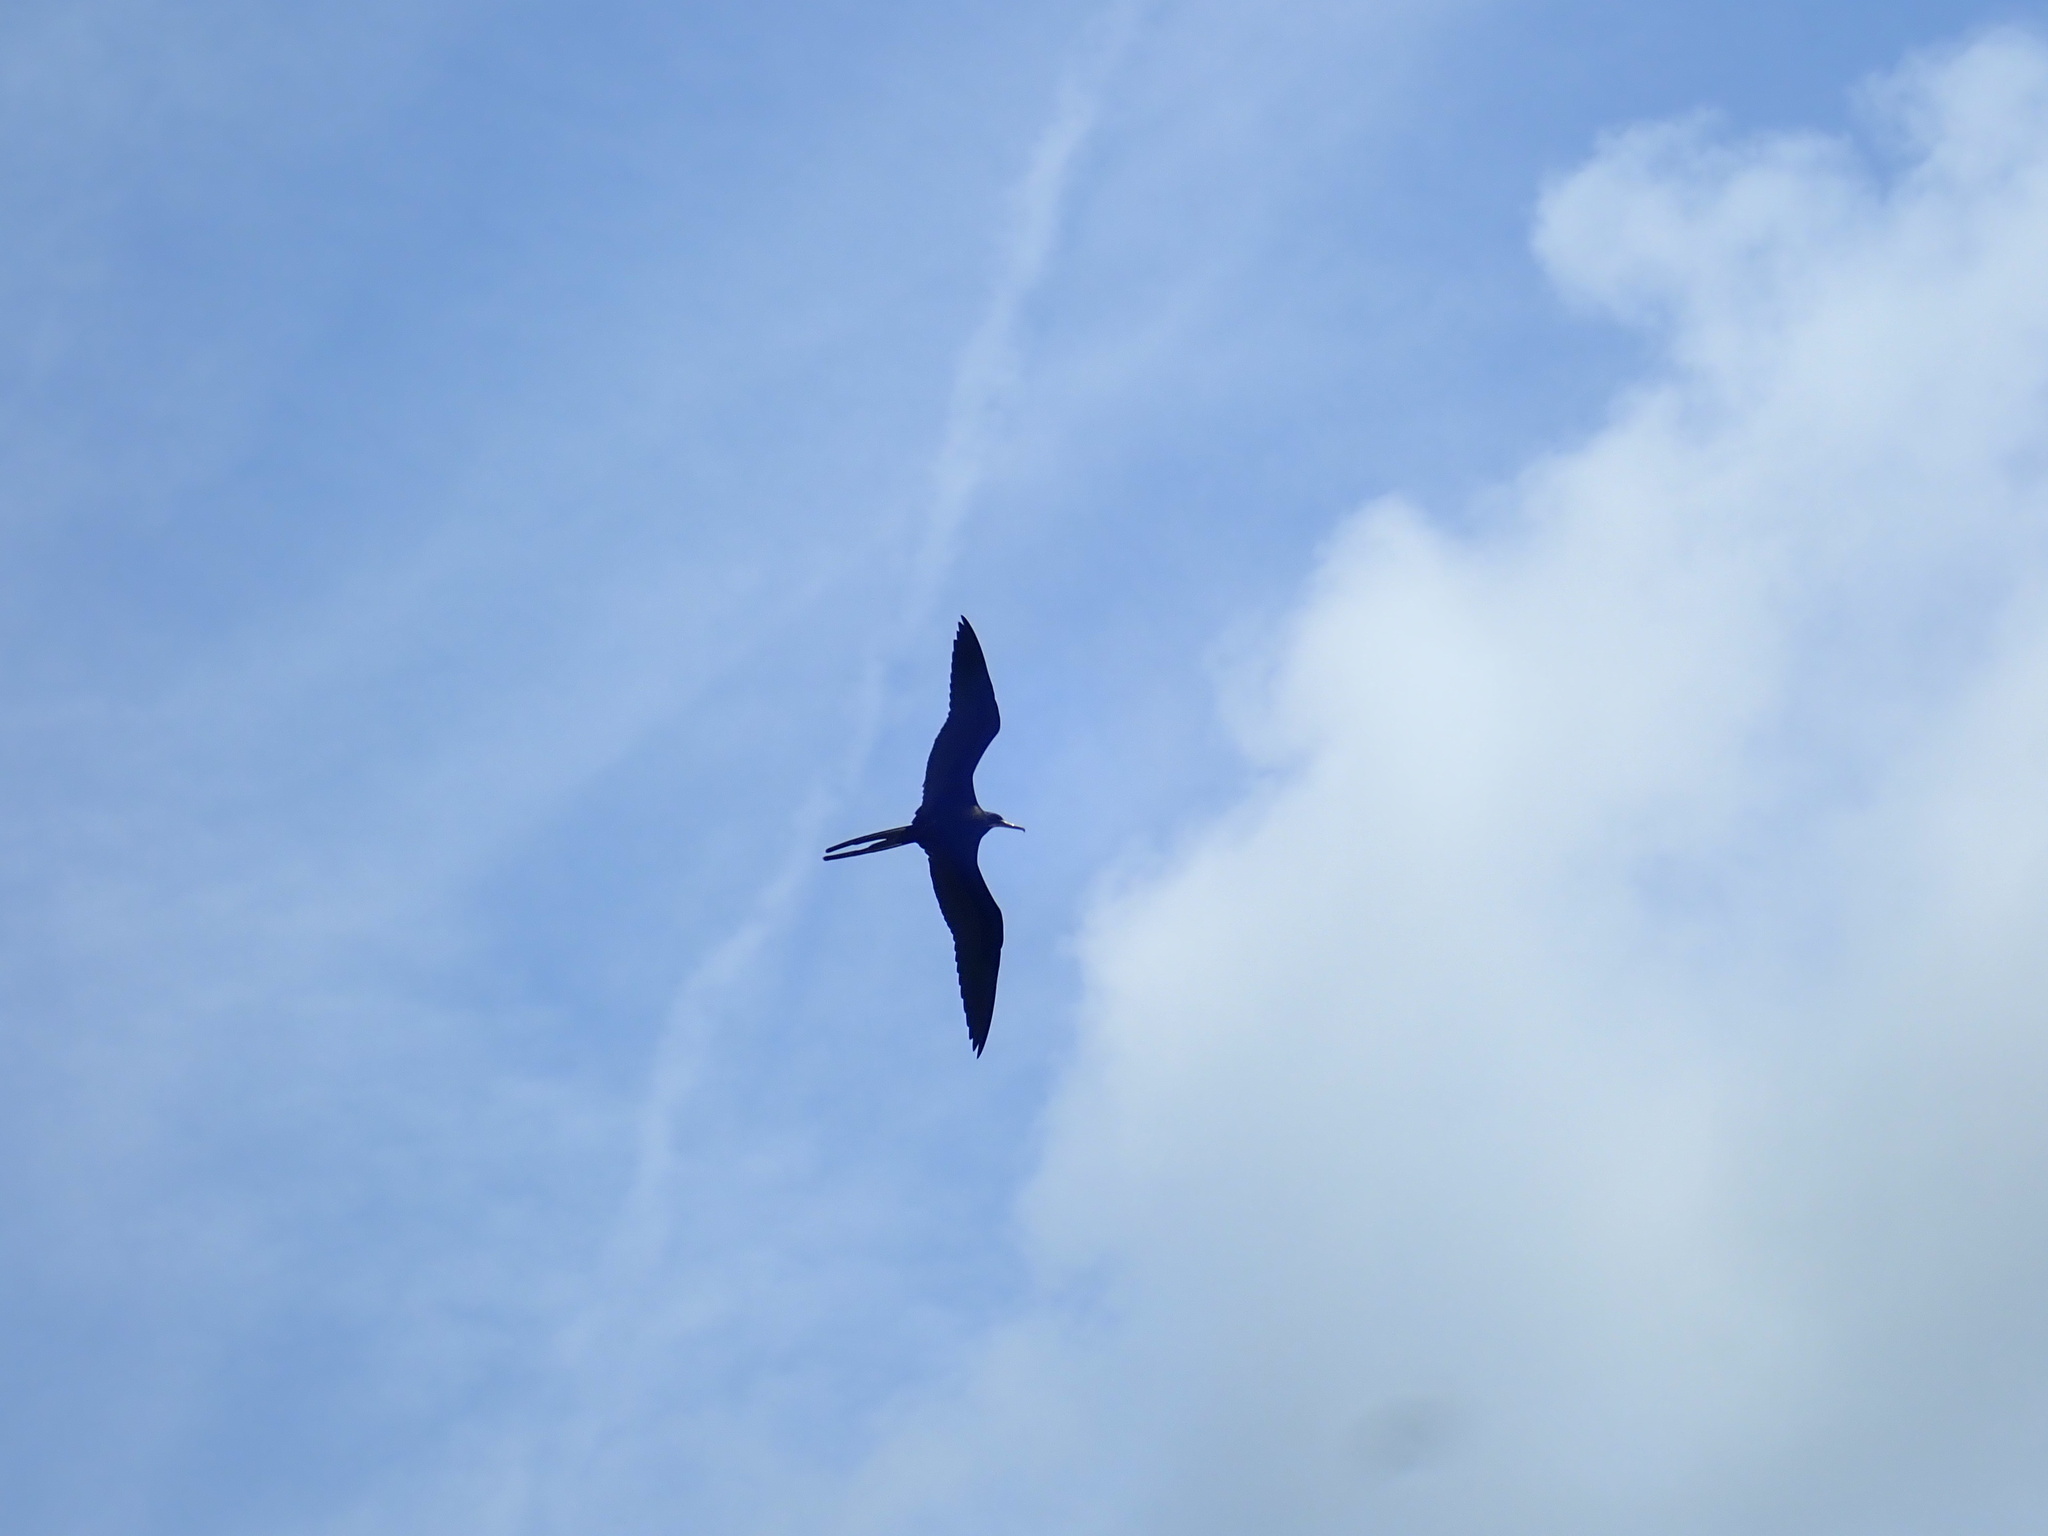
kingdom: Animalia
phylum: Chordata
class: Aves
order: Suliformes
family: Fregatidae
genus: Fregata
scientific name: Fregata magnificens
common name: Magnificent frigatebird
